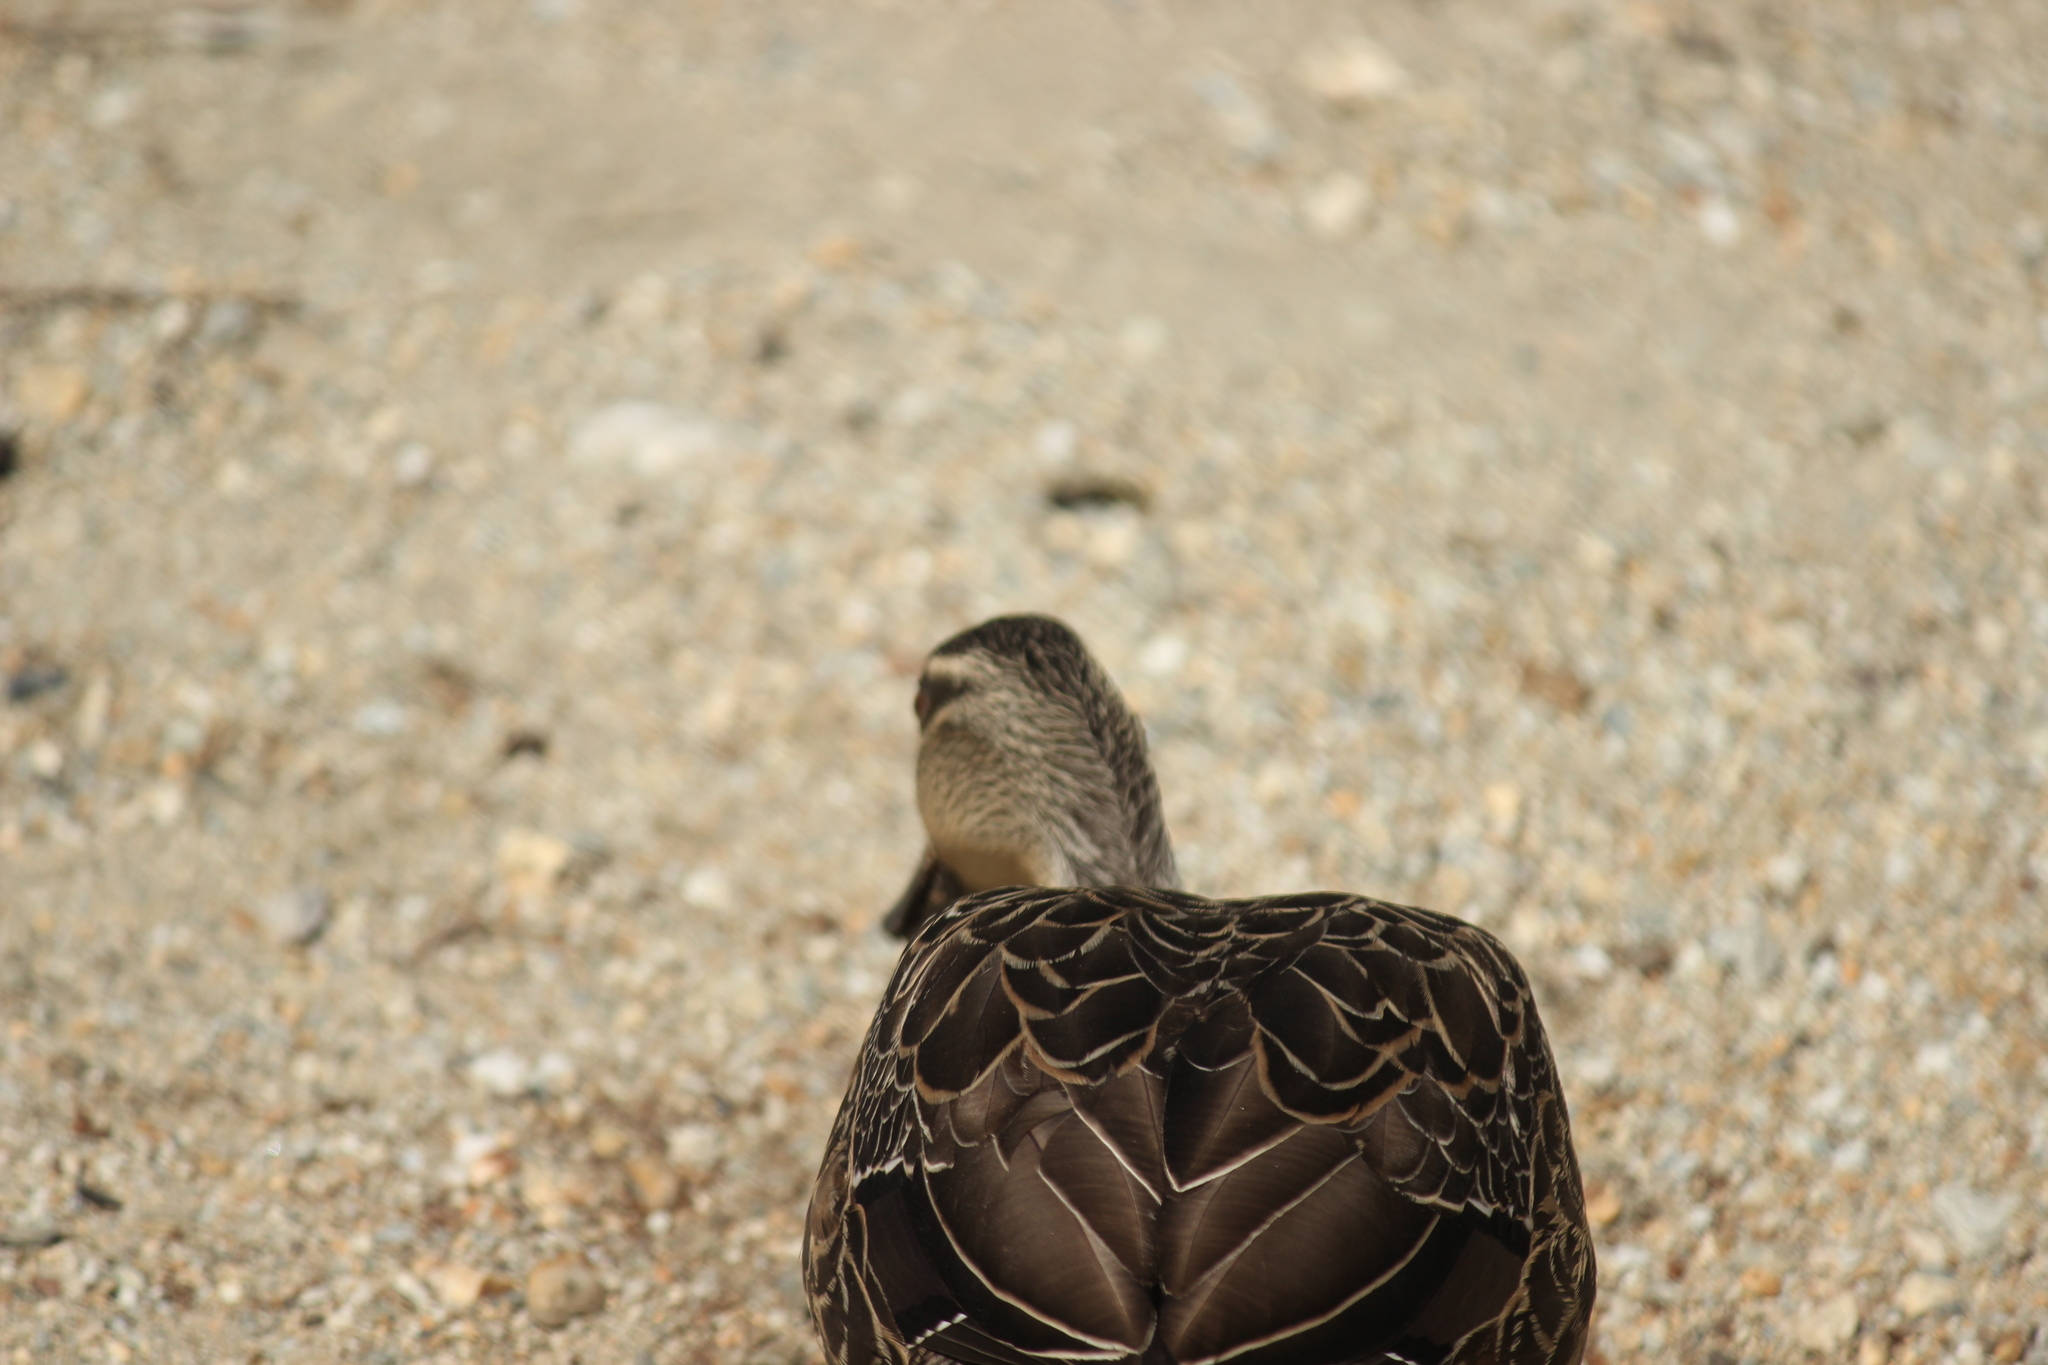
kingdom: Animalia
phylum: Chordata
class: Aves
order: Anseriformes
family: Anatidae
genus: Anas
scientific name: Anas
